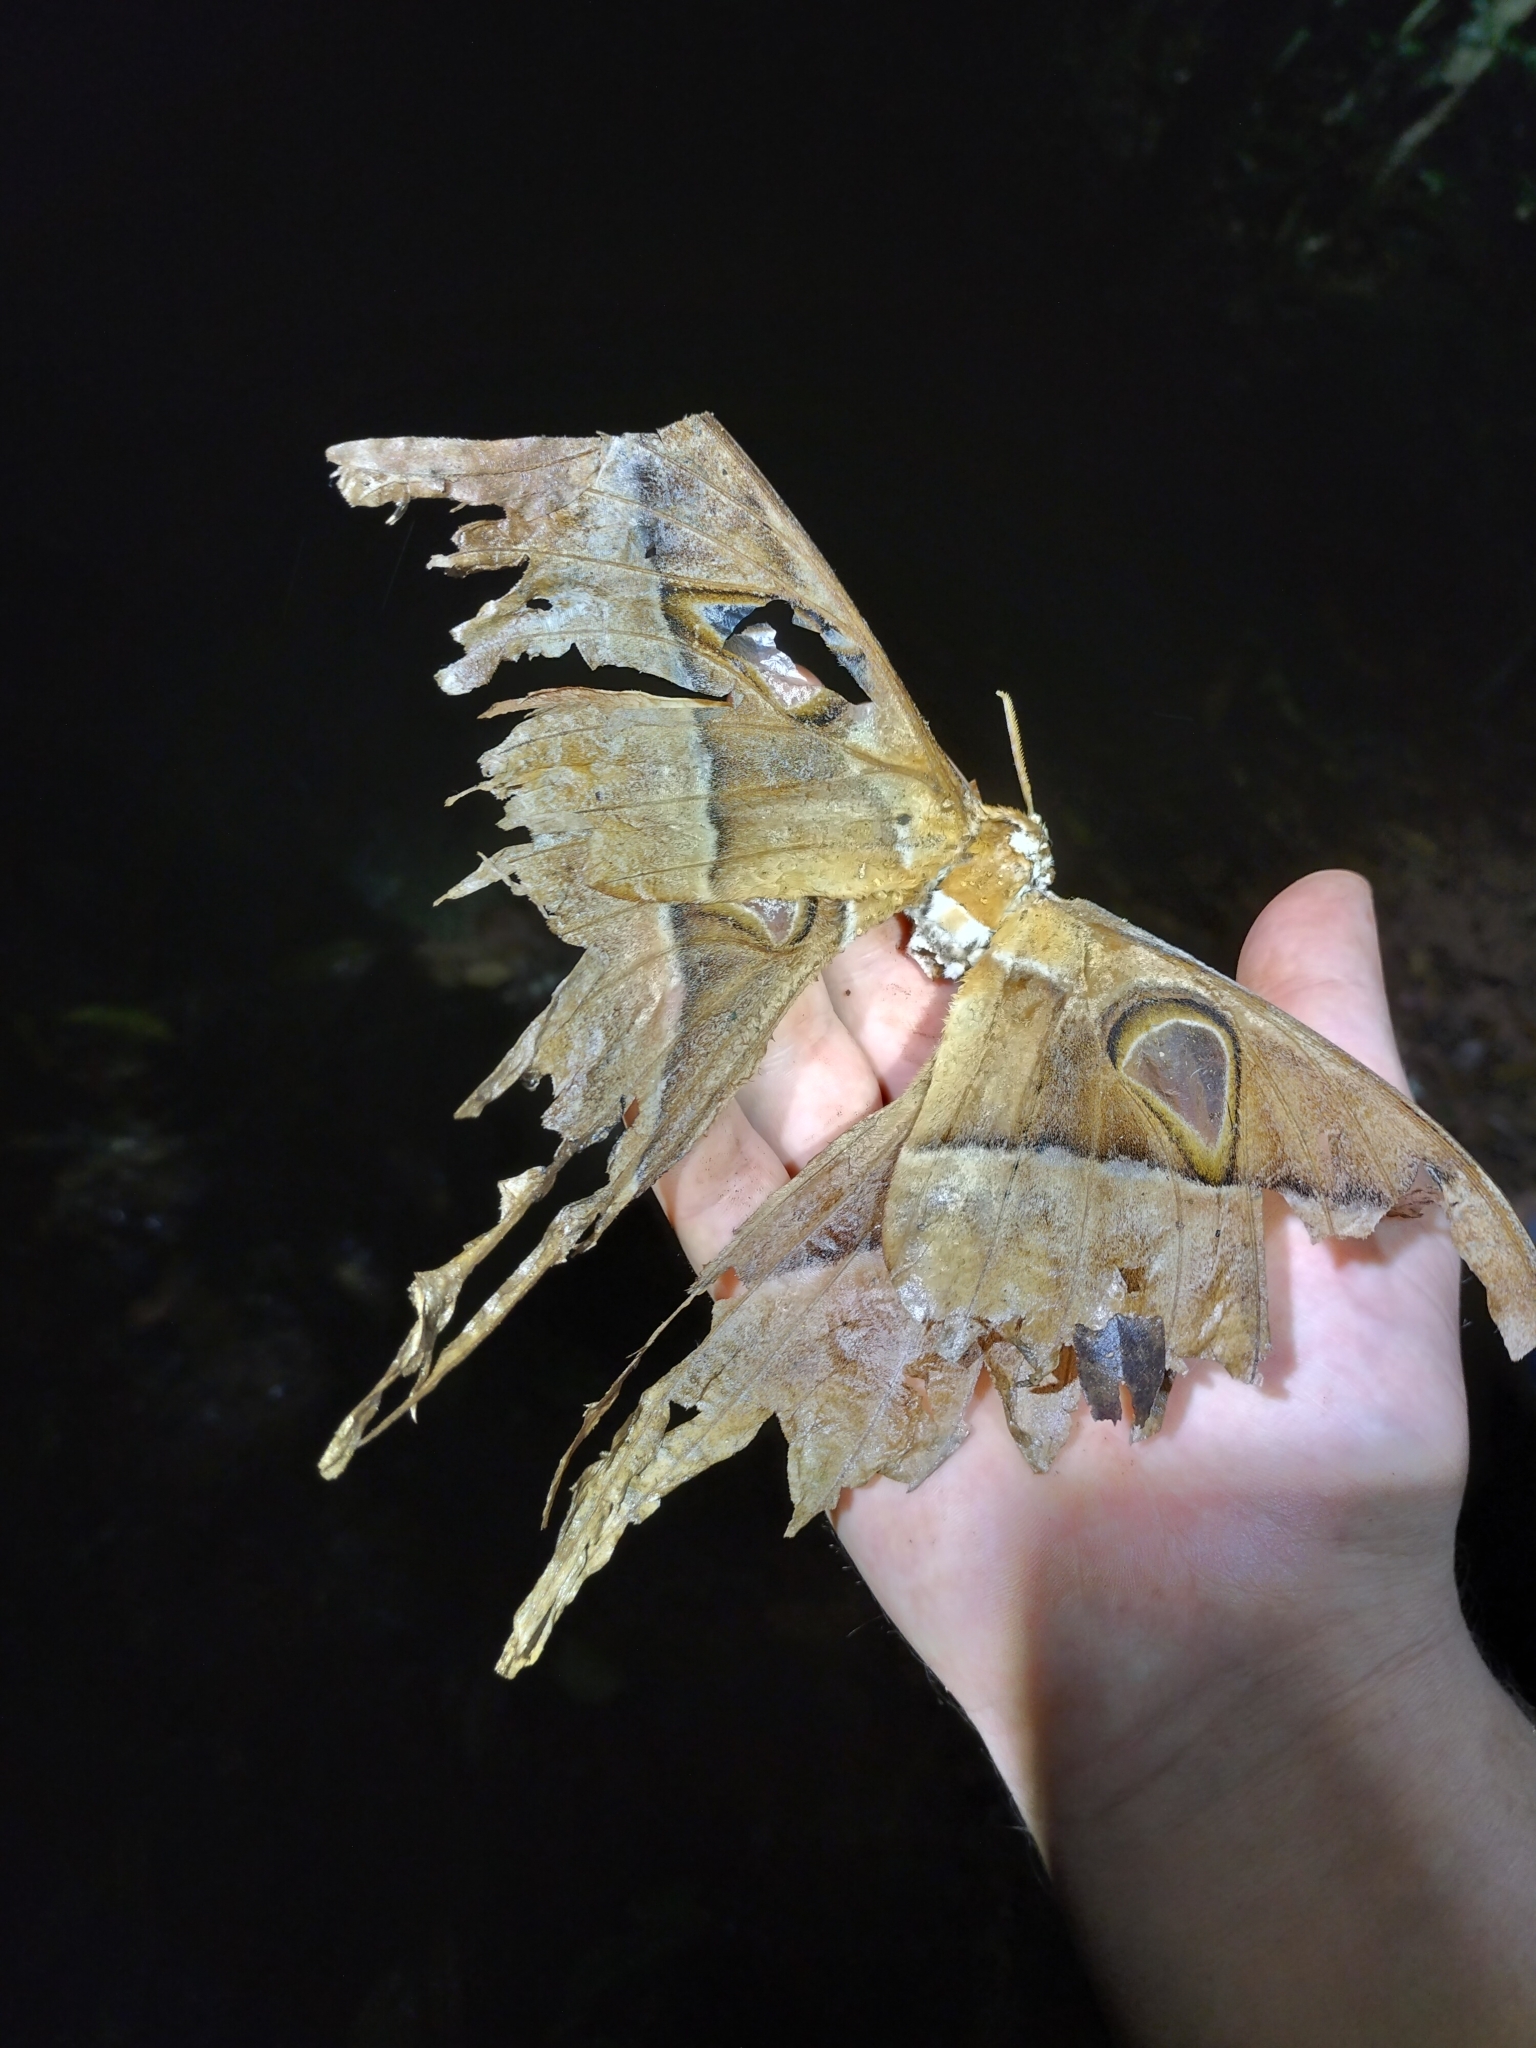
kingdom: Animalia
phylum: Arthropoda
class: Insecta
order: Lepidoptera
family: Saturniidae
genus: Coscinocera
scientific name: Coscinocera hercules
